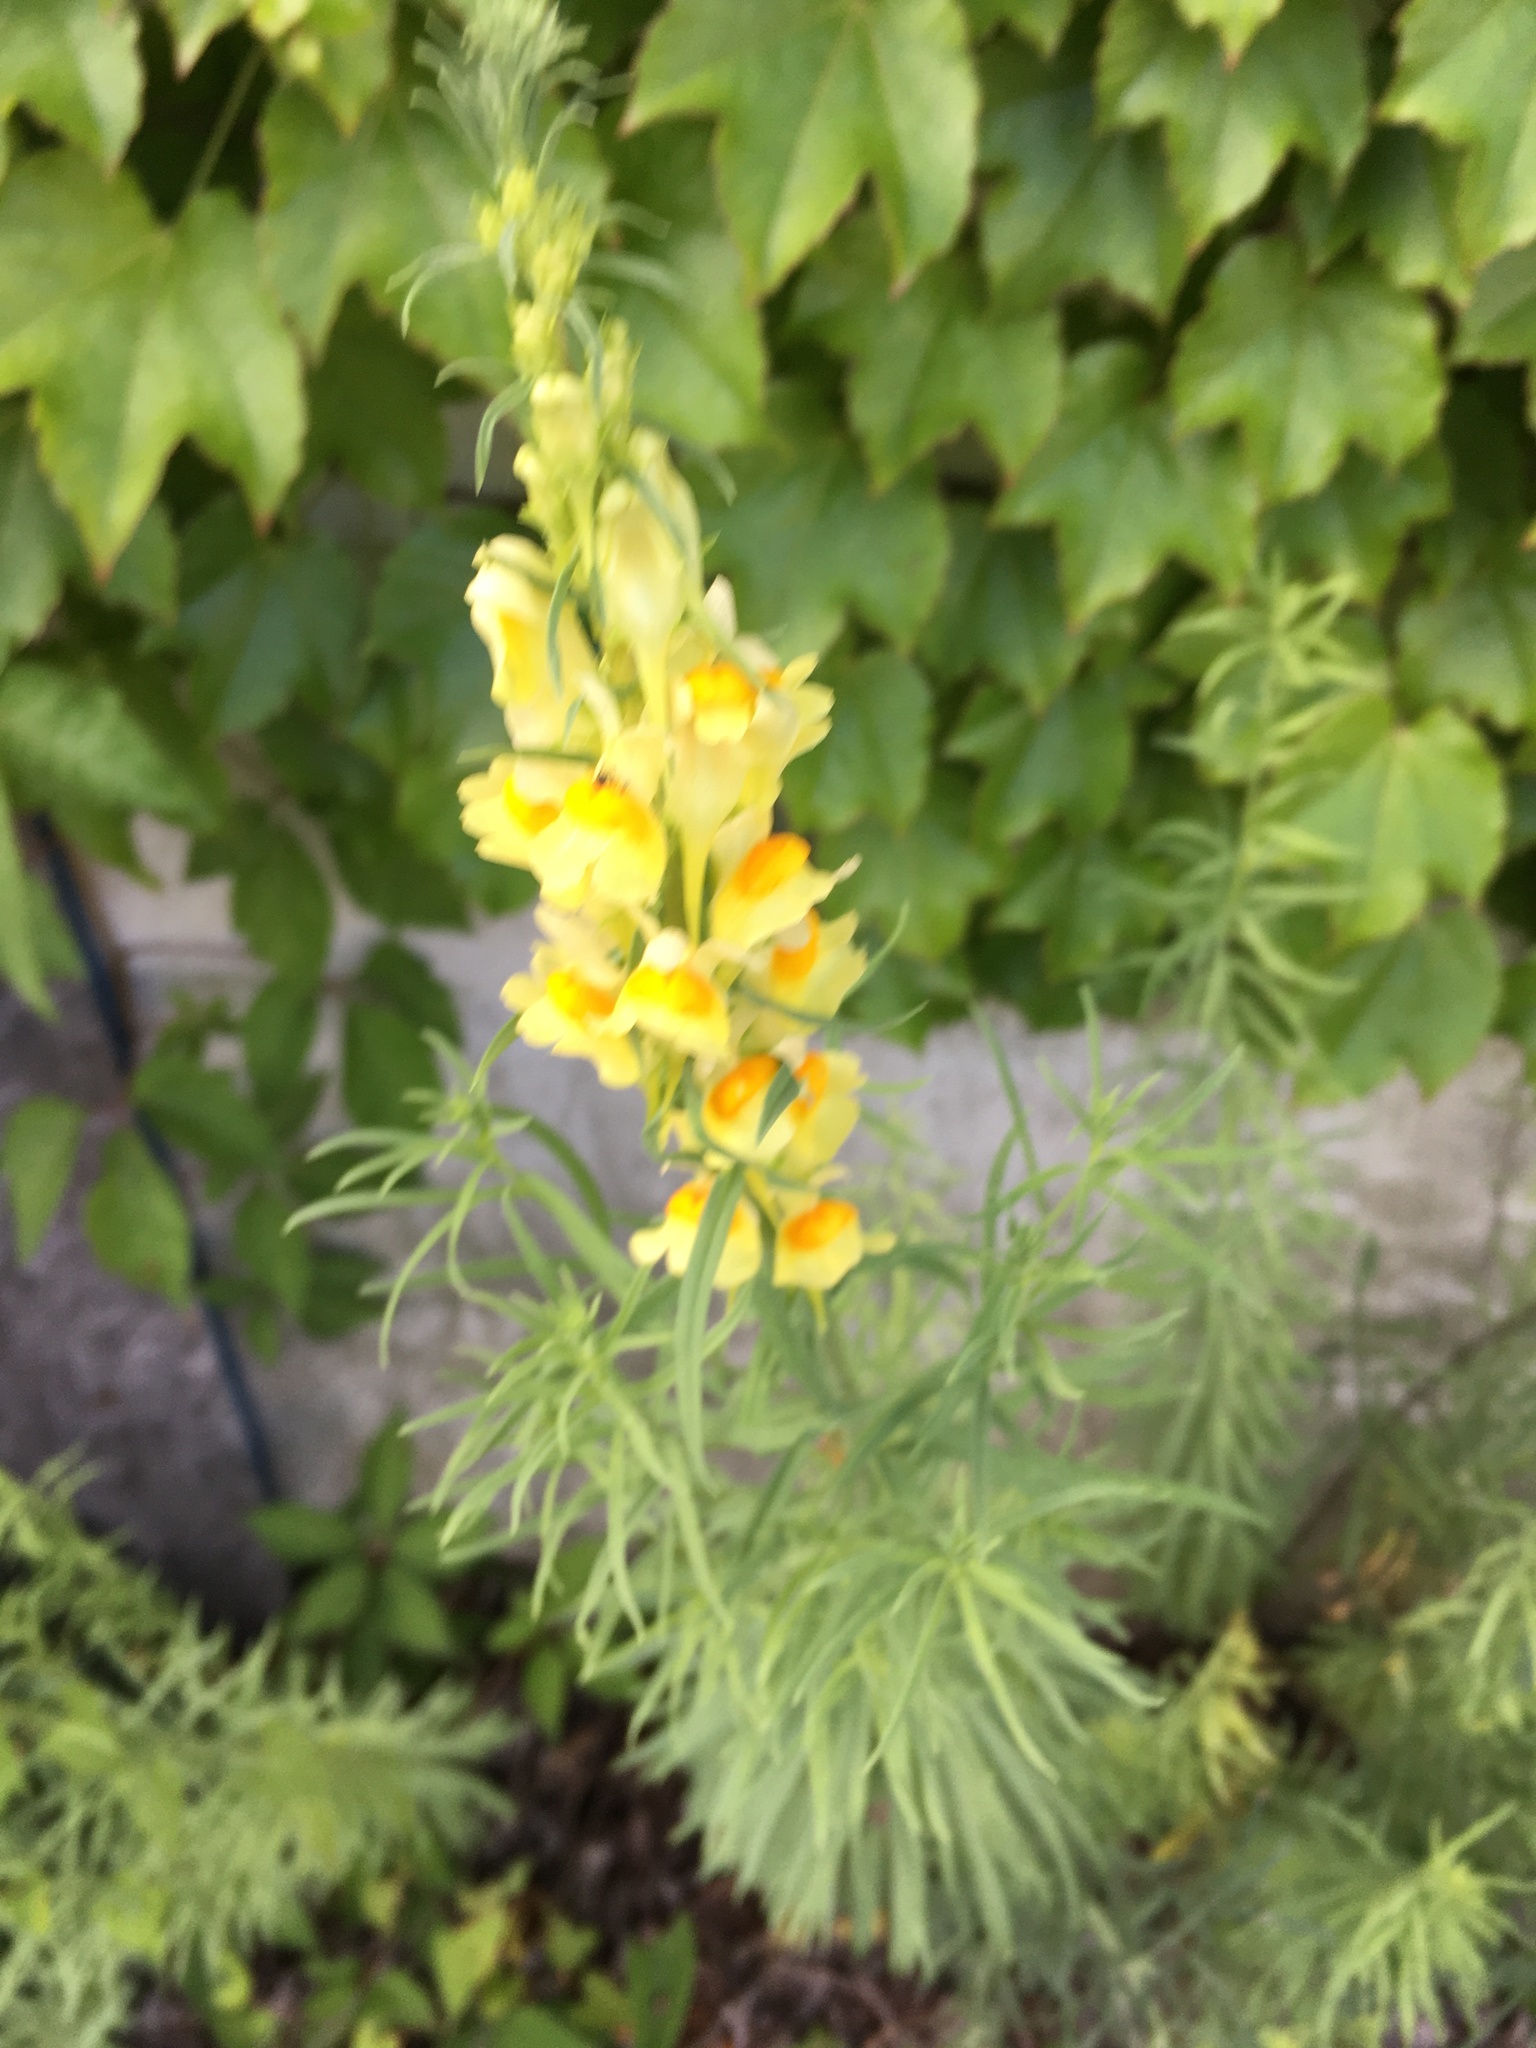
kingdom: Plantae
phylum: Tracheophyta
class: Magnoliopsida
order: Lamiales
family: Plantaginaceae
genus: Linaria
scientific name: Linaria vulgaris
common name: Butter and eggs
